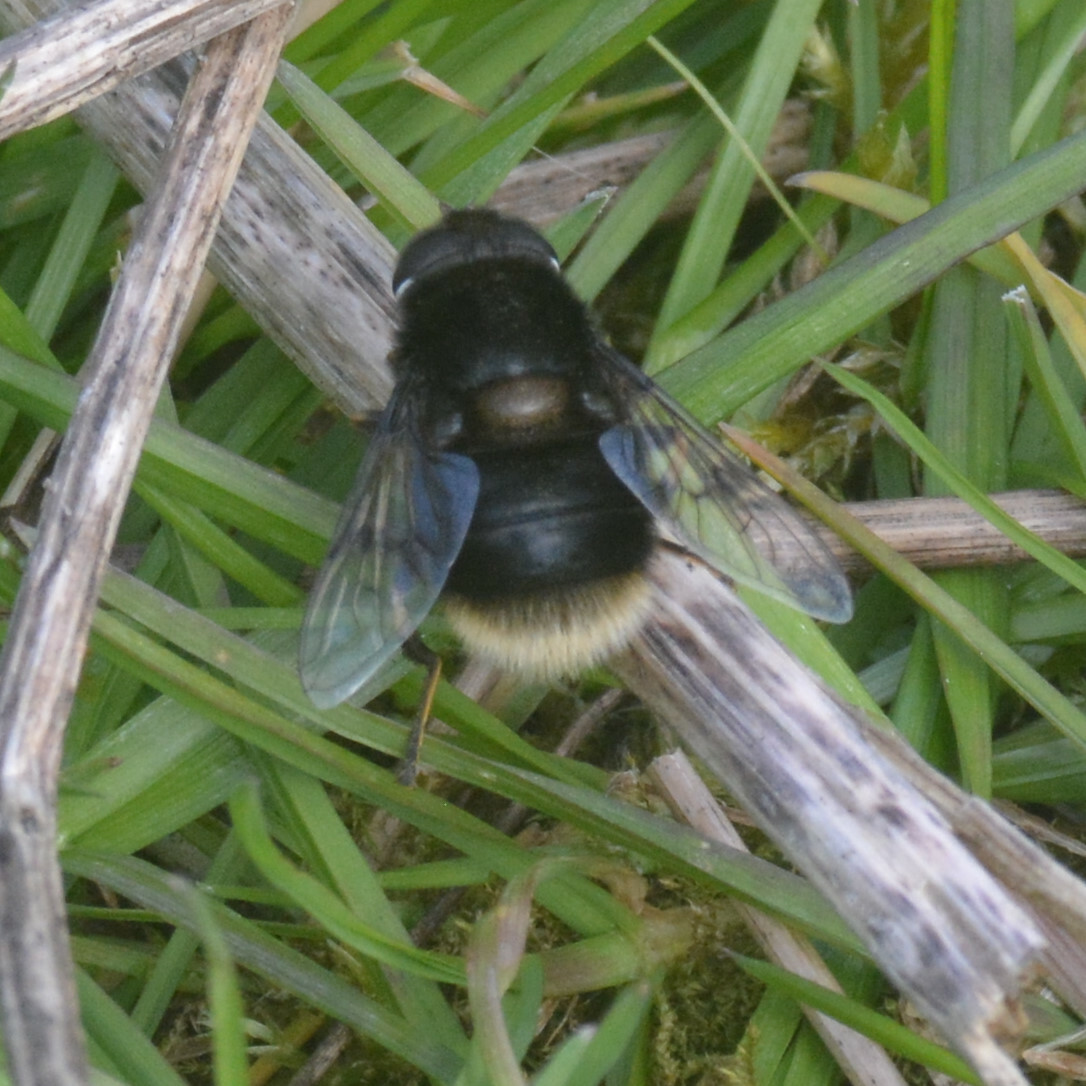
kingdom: Animalia
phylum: Arthropoda
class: Insecta
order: Diptera
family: Syrphidae
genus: Eristalis
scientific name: Eristalis intricaria
